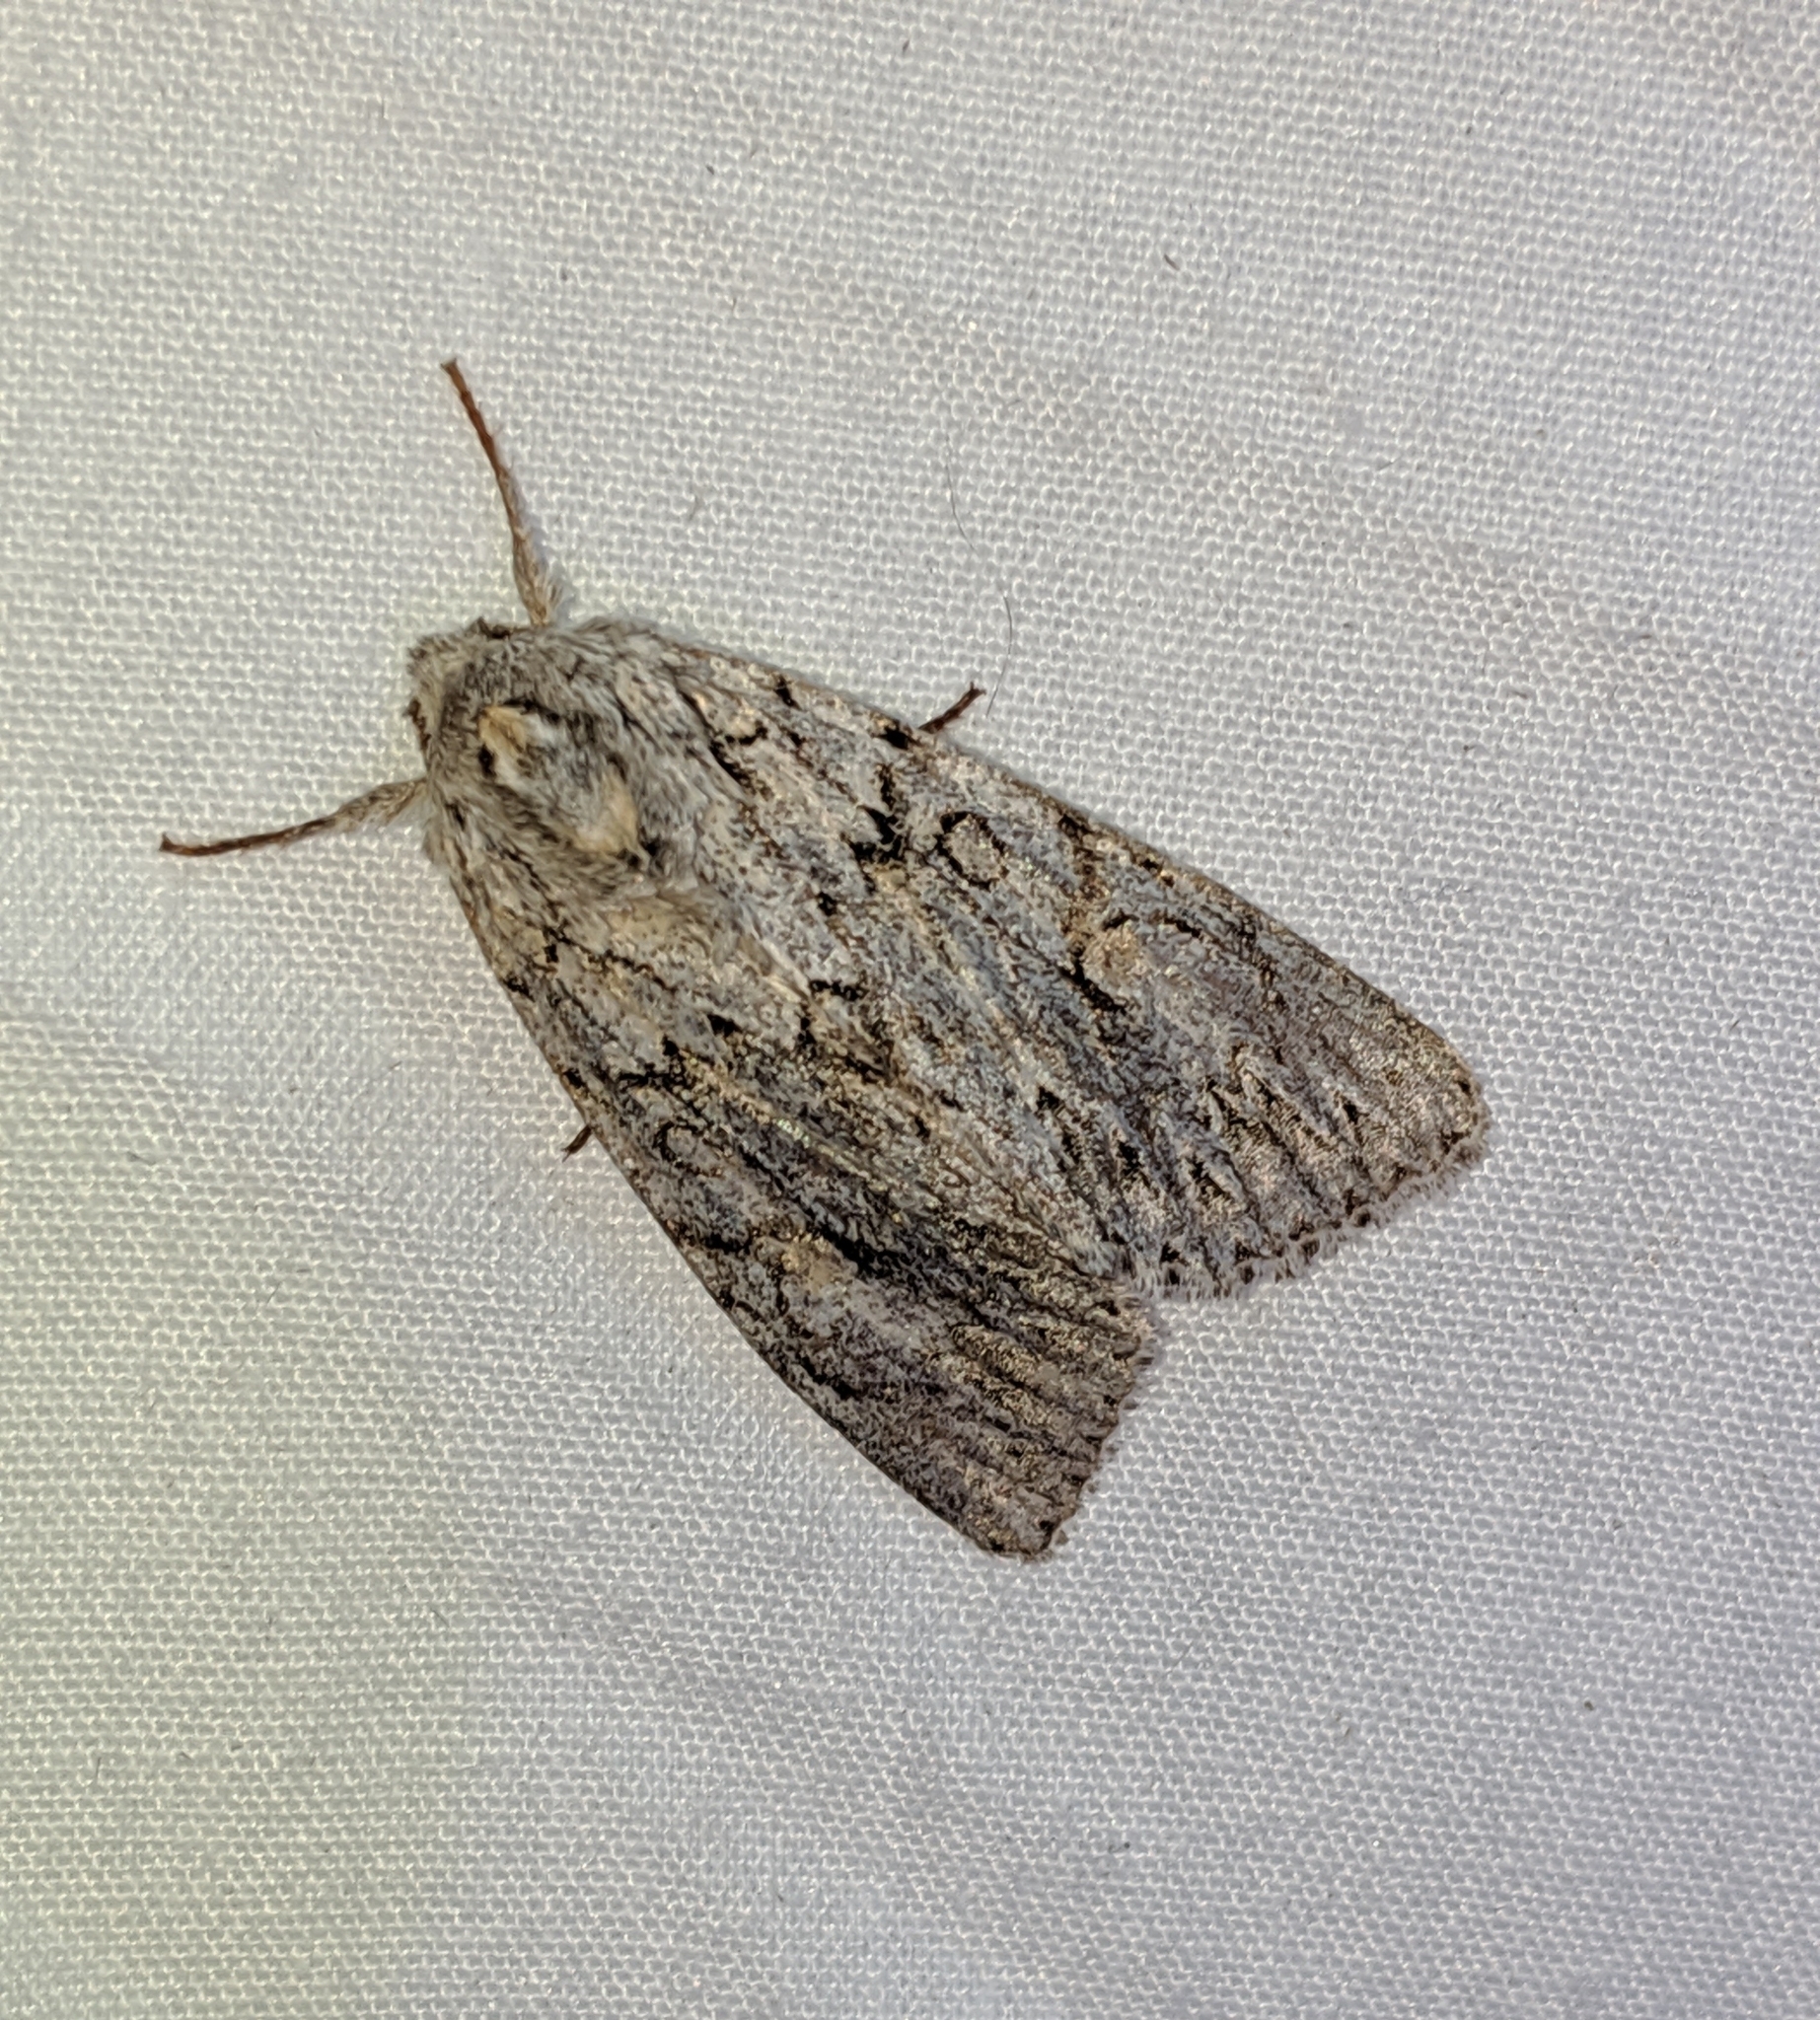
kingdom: Animalia
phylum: Arthropoda
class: Insecta
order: Lepidoptera
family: Noctuidae
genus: Andropolia
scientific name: Andropolia aedon
